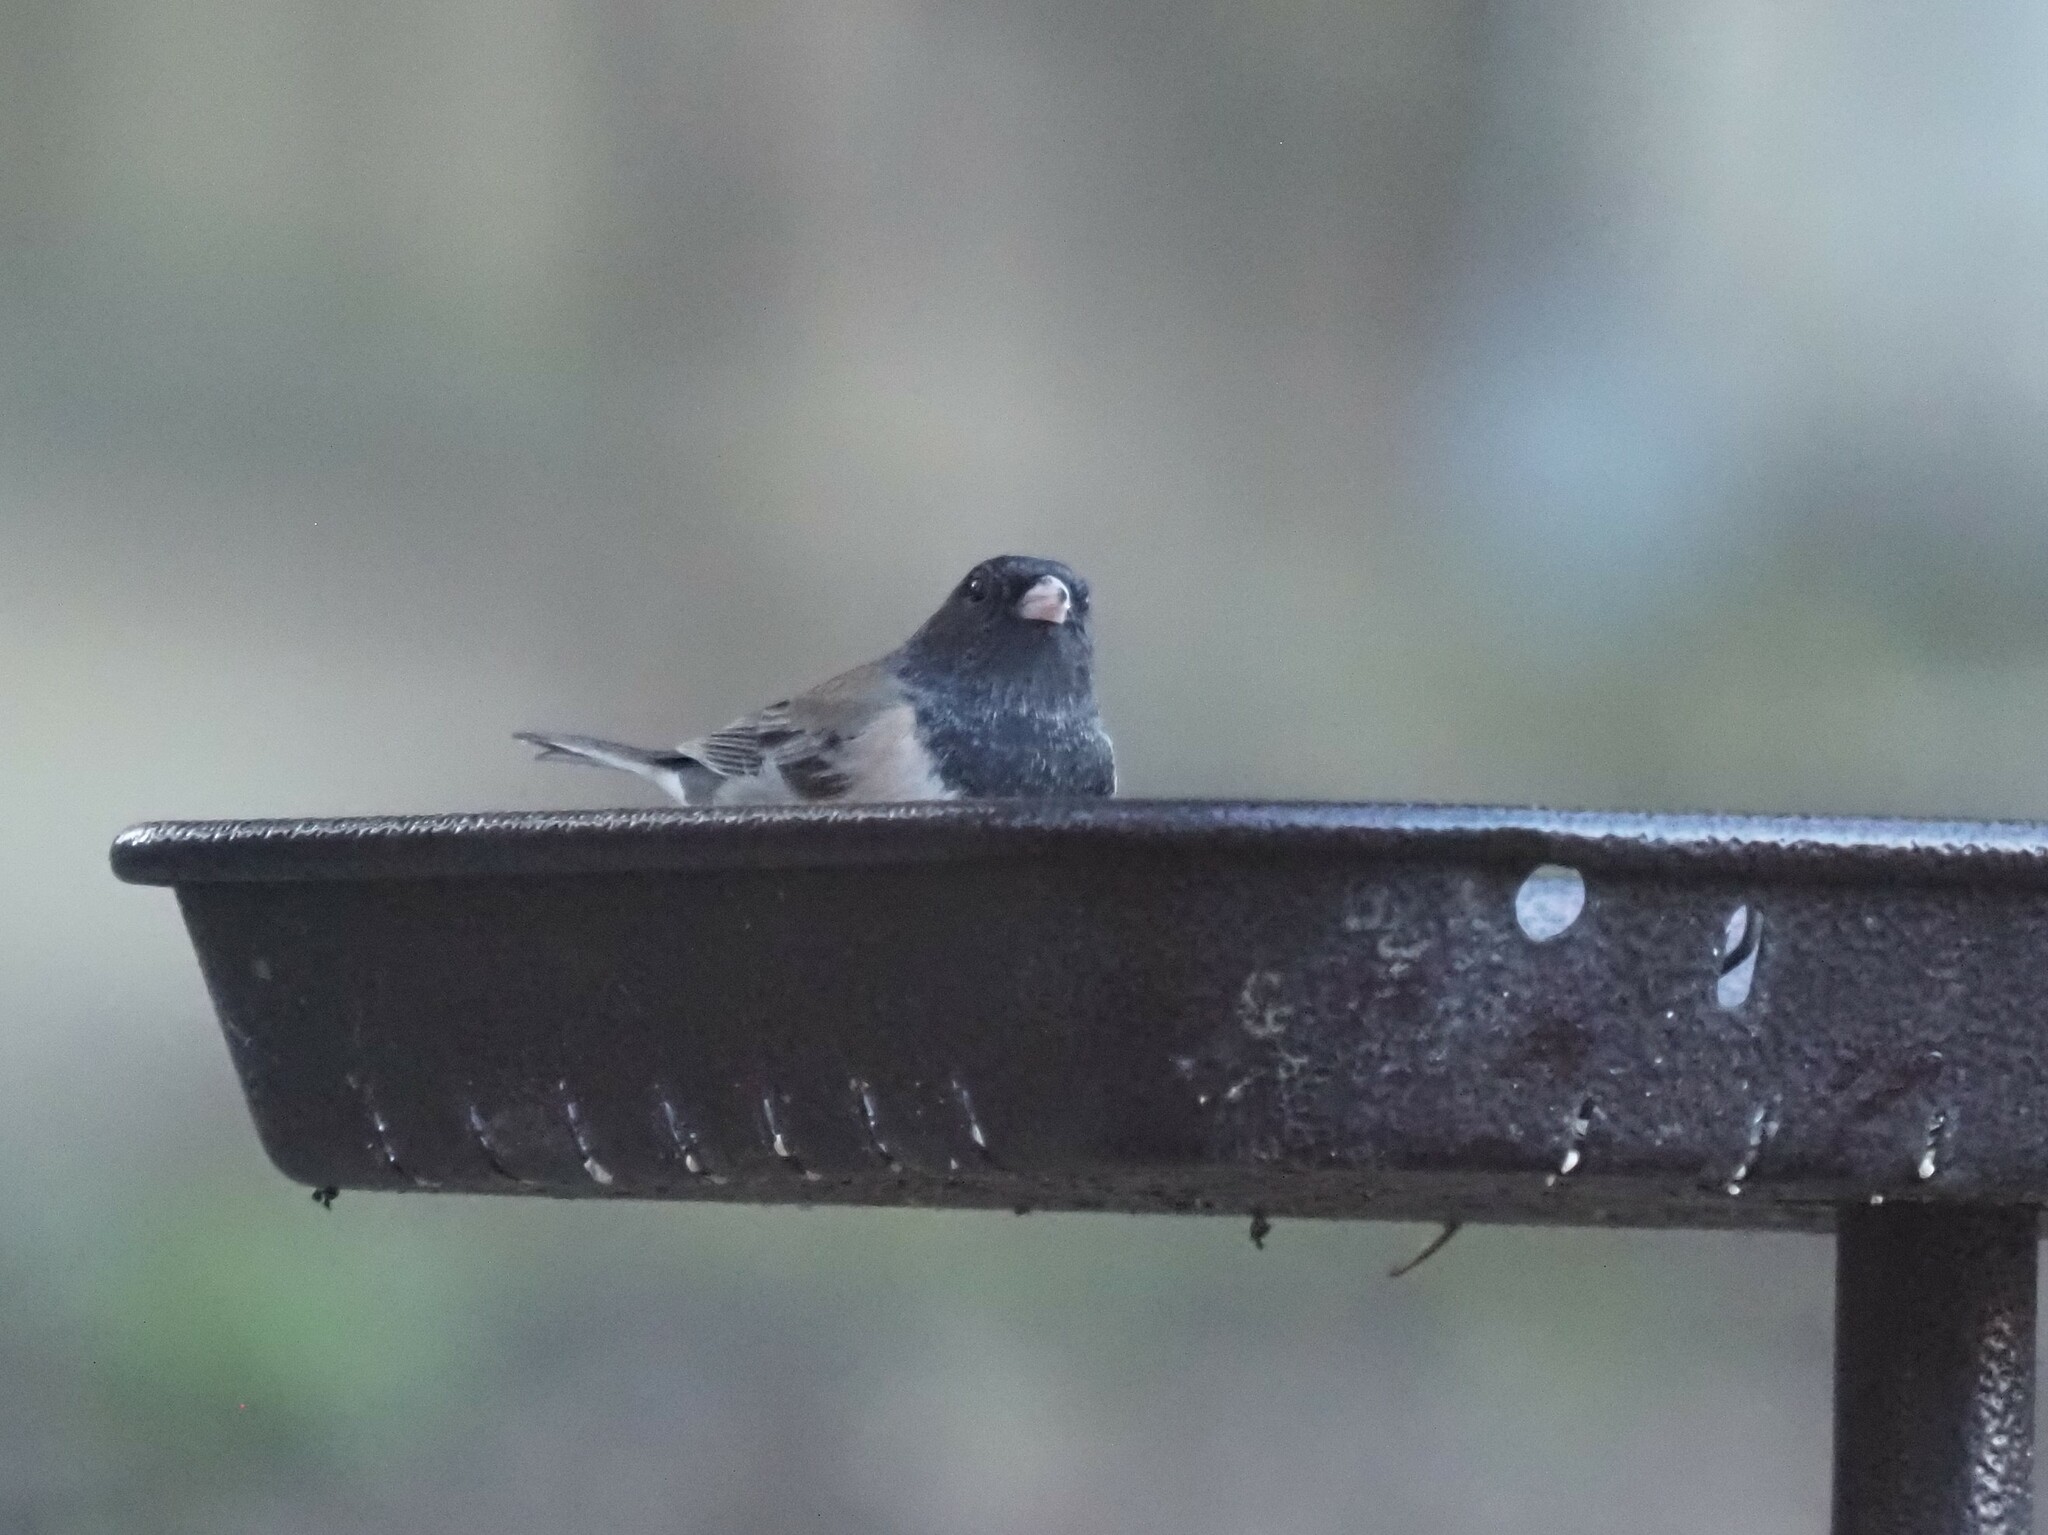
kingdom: Animalia
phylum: Chordata
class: Aves
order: Passeriformes
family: Passerellidae
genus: Junco
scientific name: Junco hyemalis
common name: Dark-eyed junco
